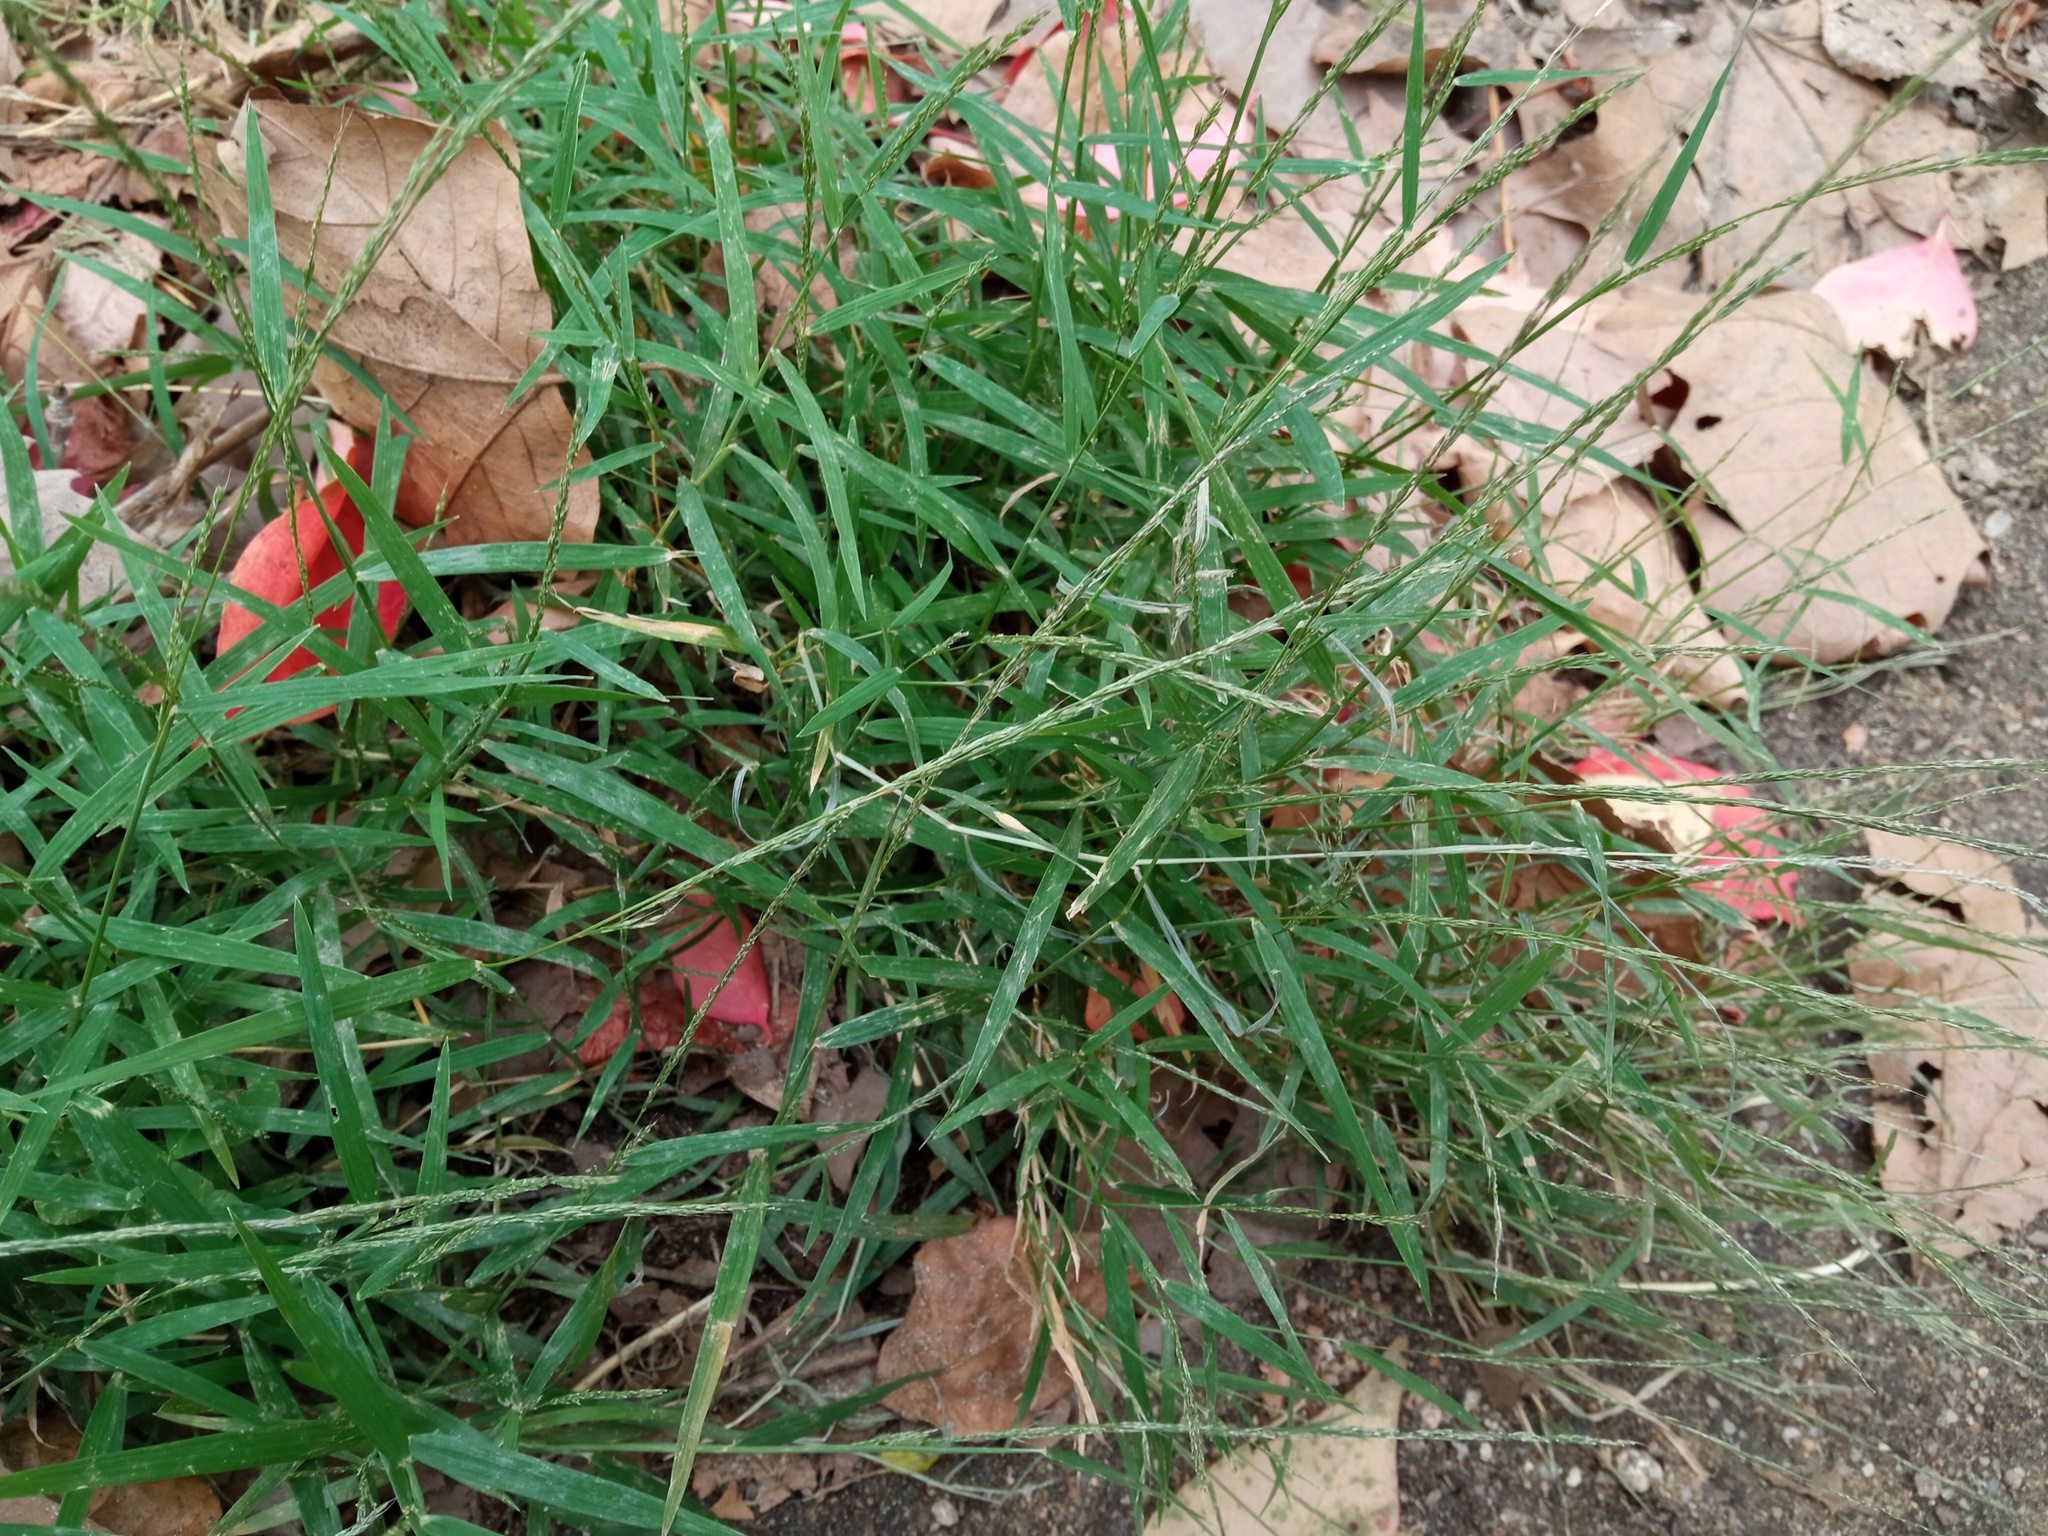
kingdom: Plantae
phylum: Tracheophyta
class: Liliopsida
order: Poales
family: Poaceae
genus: Muhlenbergia
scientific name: Muhlenbergia schreberi
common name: Nimblewill
